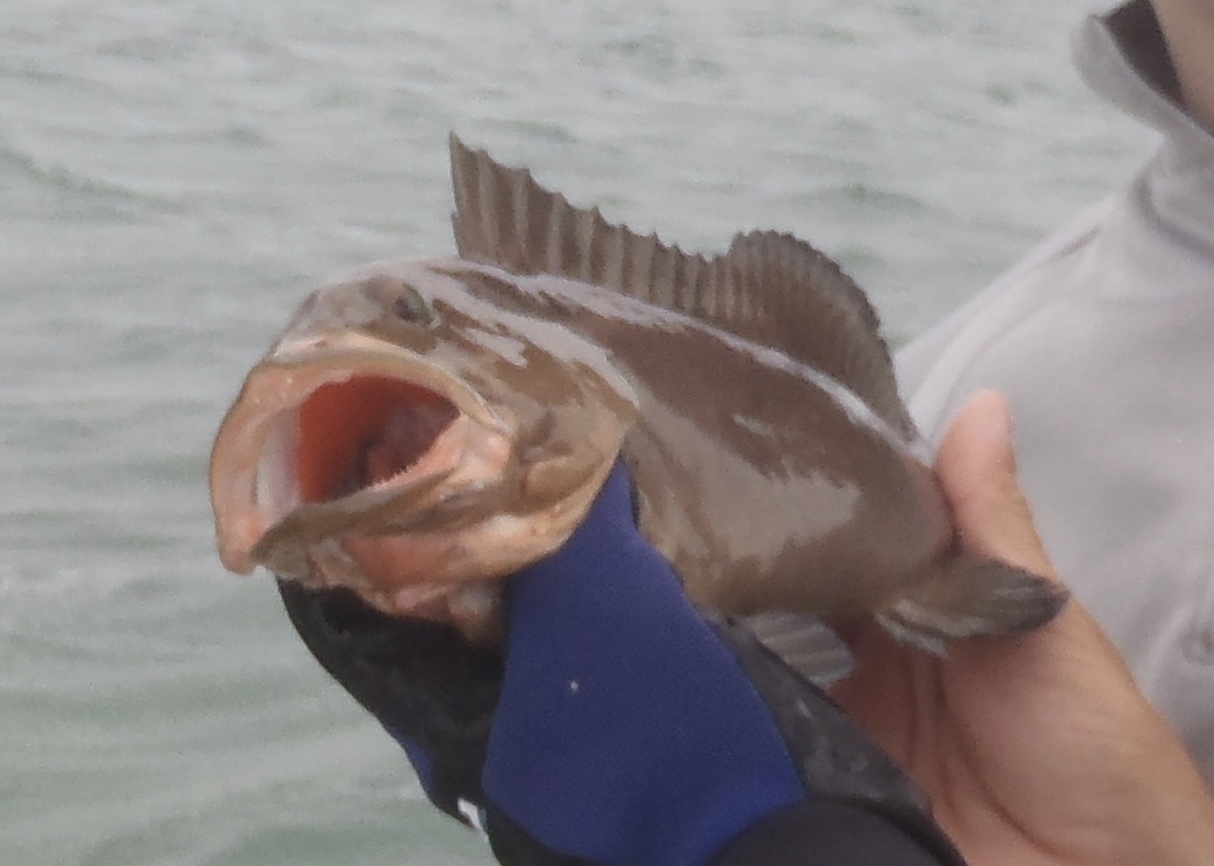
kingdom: Animalia
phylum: Chordata
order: Perciformes
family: Serranidae
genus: Epinephelus
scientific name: Epinephelus morio
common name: Red grouper
